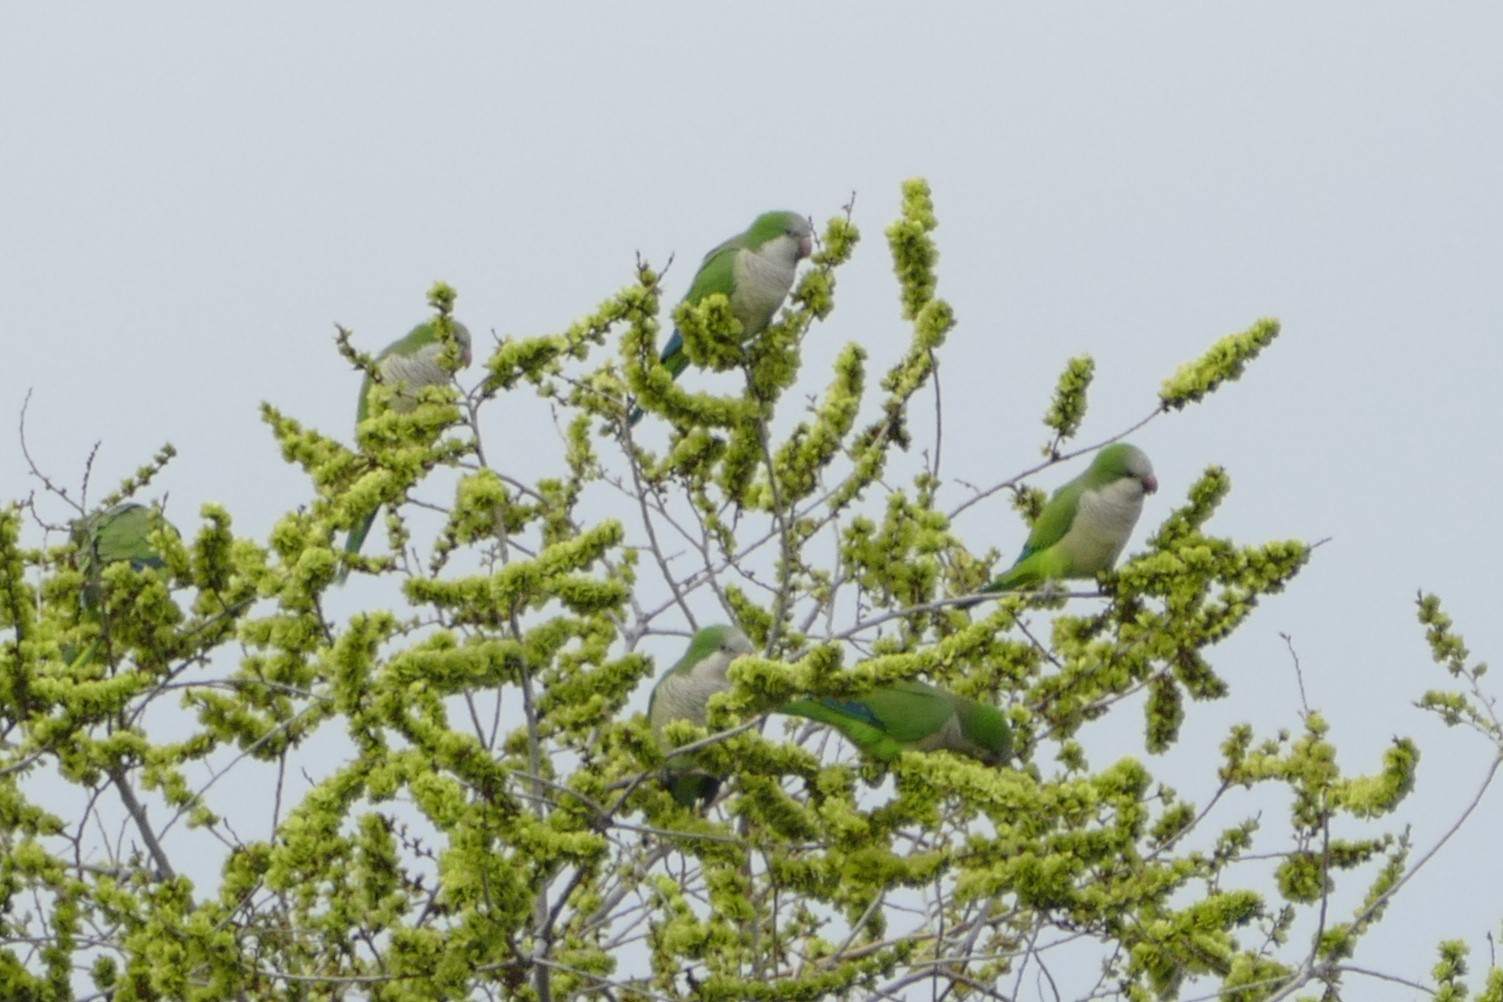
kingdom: Animalia
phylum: Chordata
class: Aves
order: Psittaciformes
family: Psittacidae
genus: Myiopsitta
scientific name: Myiopsitta monachus
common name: Monk parakeet
